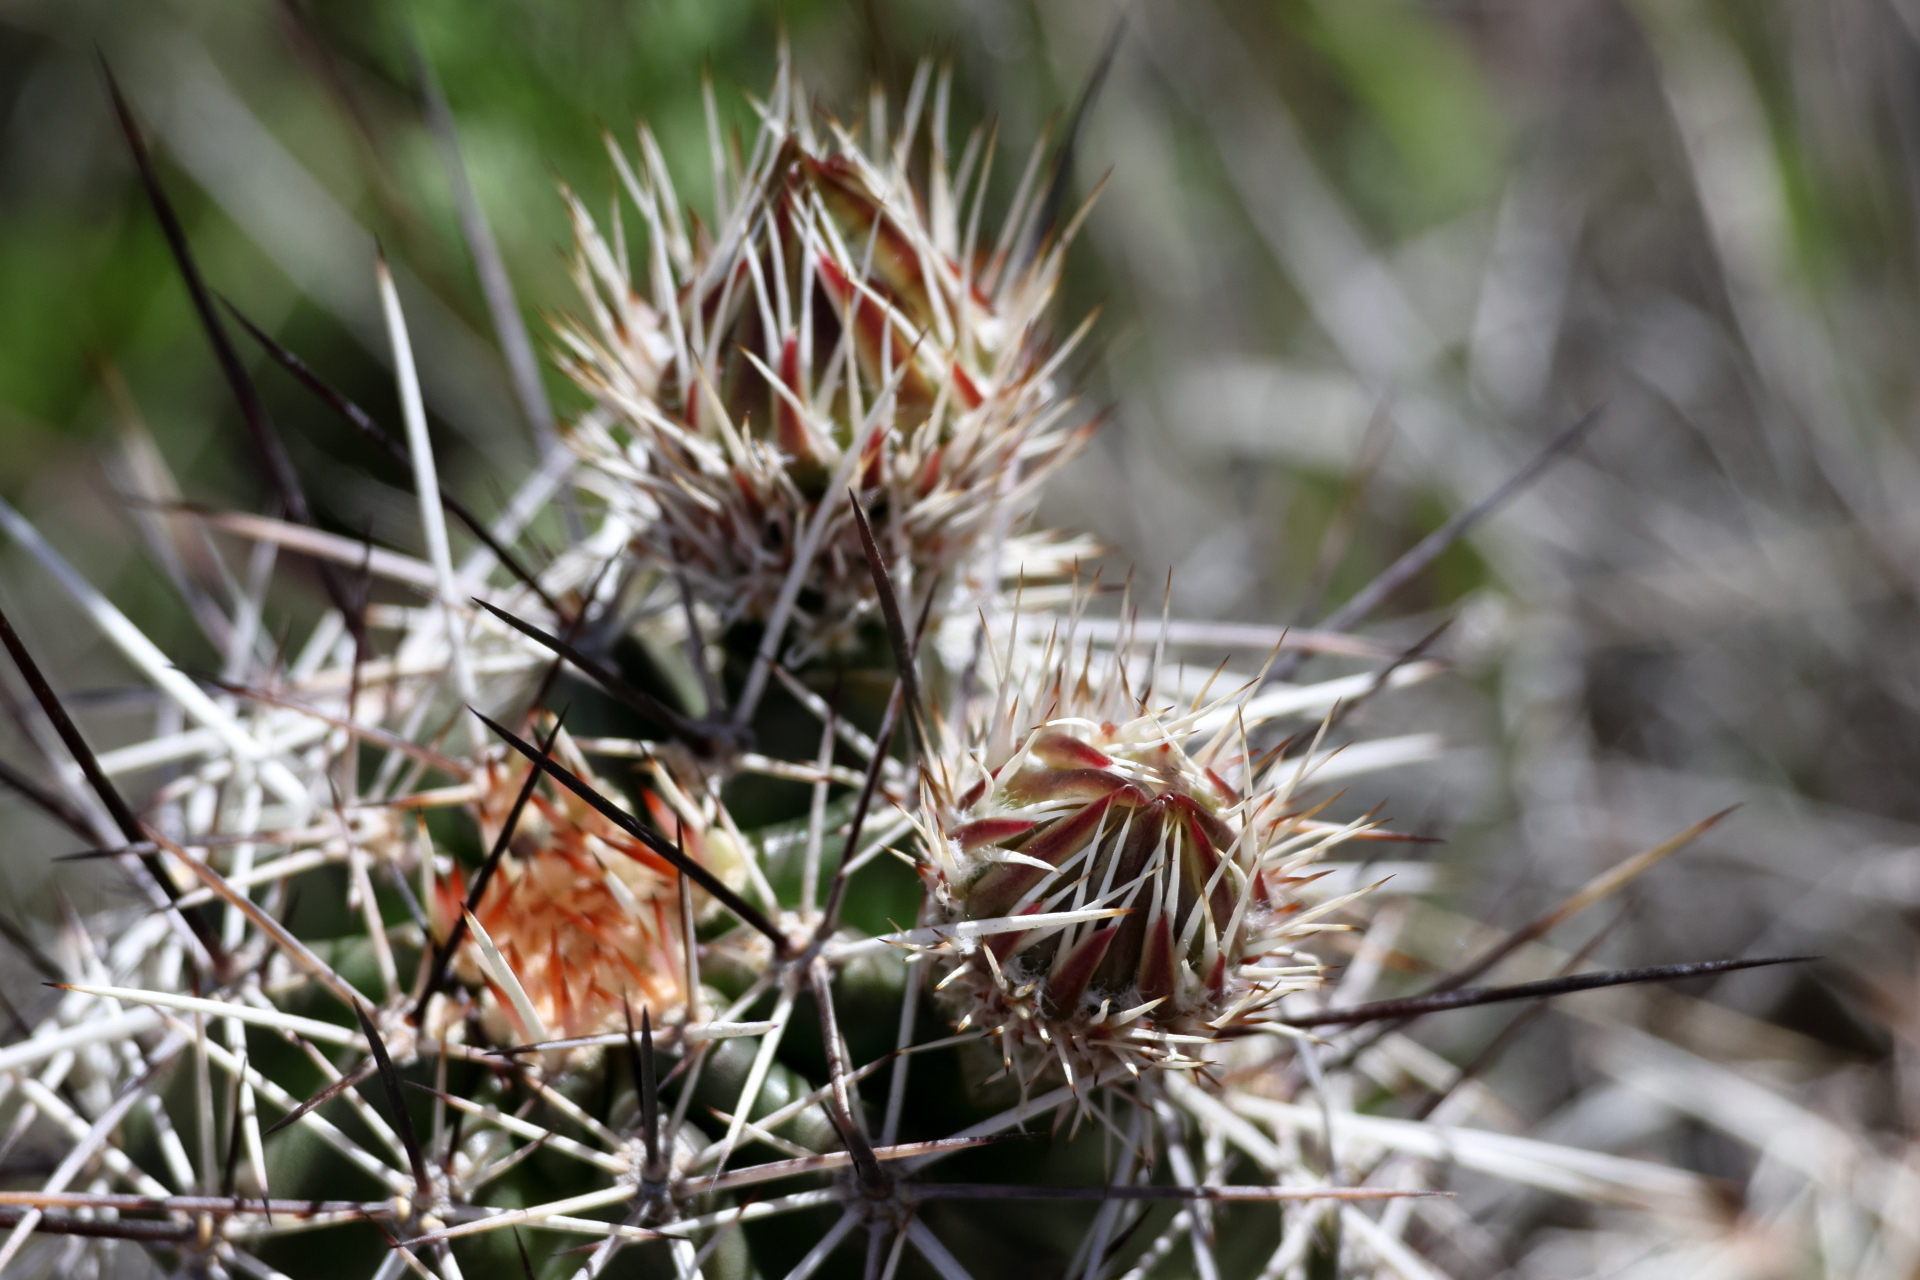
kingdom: Plantae
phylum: Tracheophyta
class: Magnoliopsida
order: Caryophyllales
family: Cactaceae
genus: Echinocereus
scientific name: Echinocereus fasciculatus
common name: Bundle hedgehog
